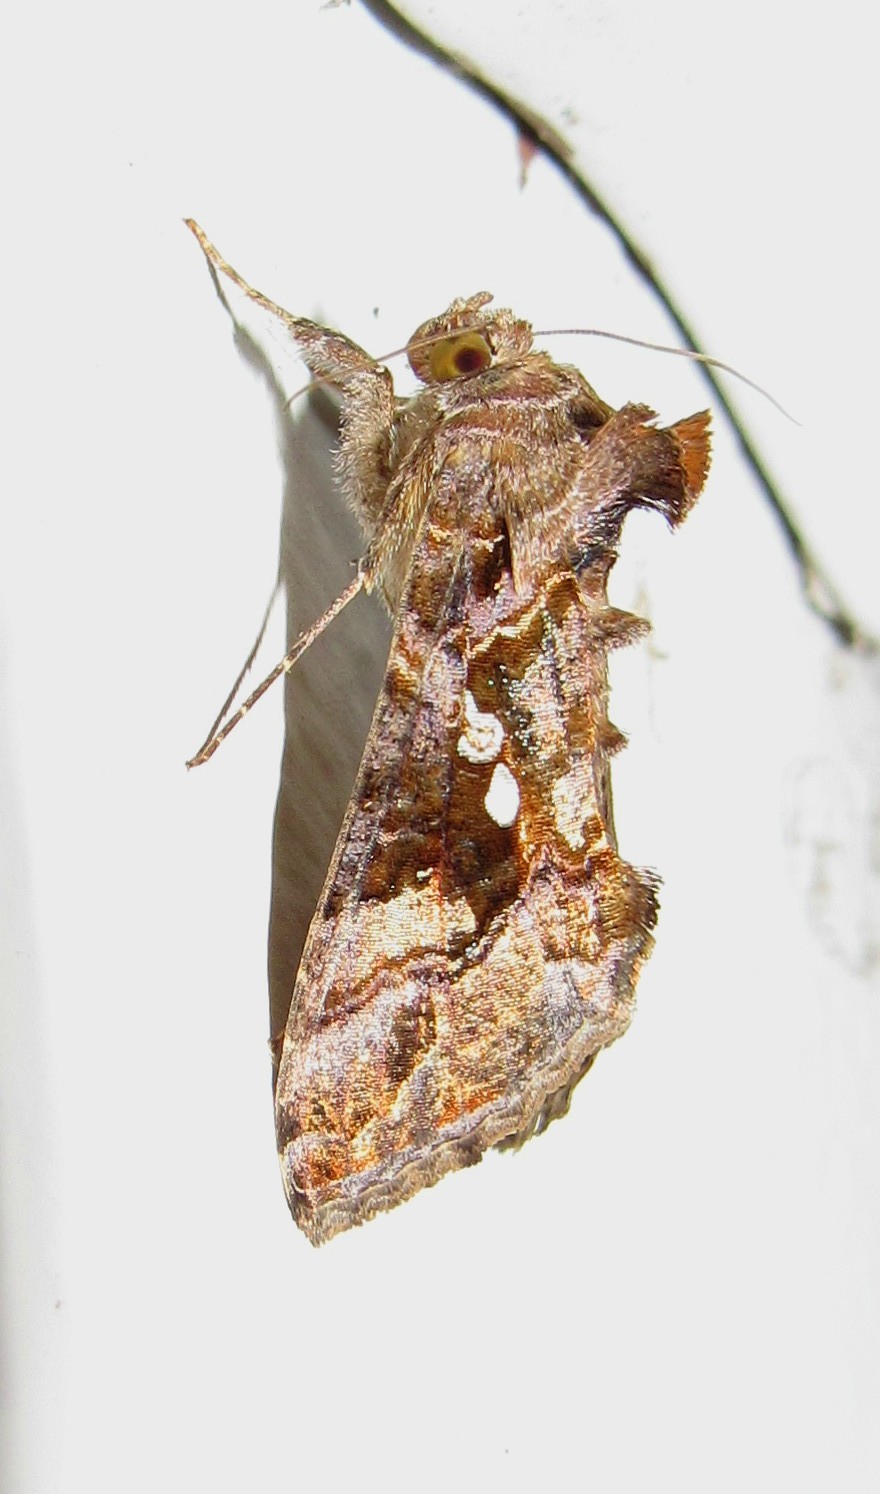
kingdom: Animalia
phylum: Arthropoda
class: Insecta
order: Lepidoptera
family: Noctuidae
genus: Chrysodeixis
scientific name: Chrysodeixis includens
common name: Cutworm moth
